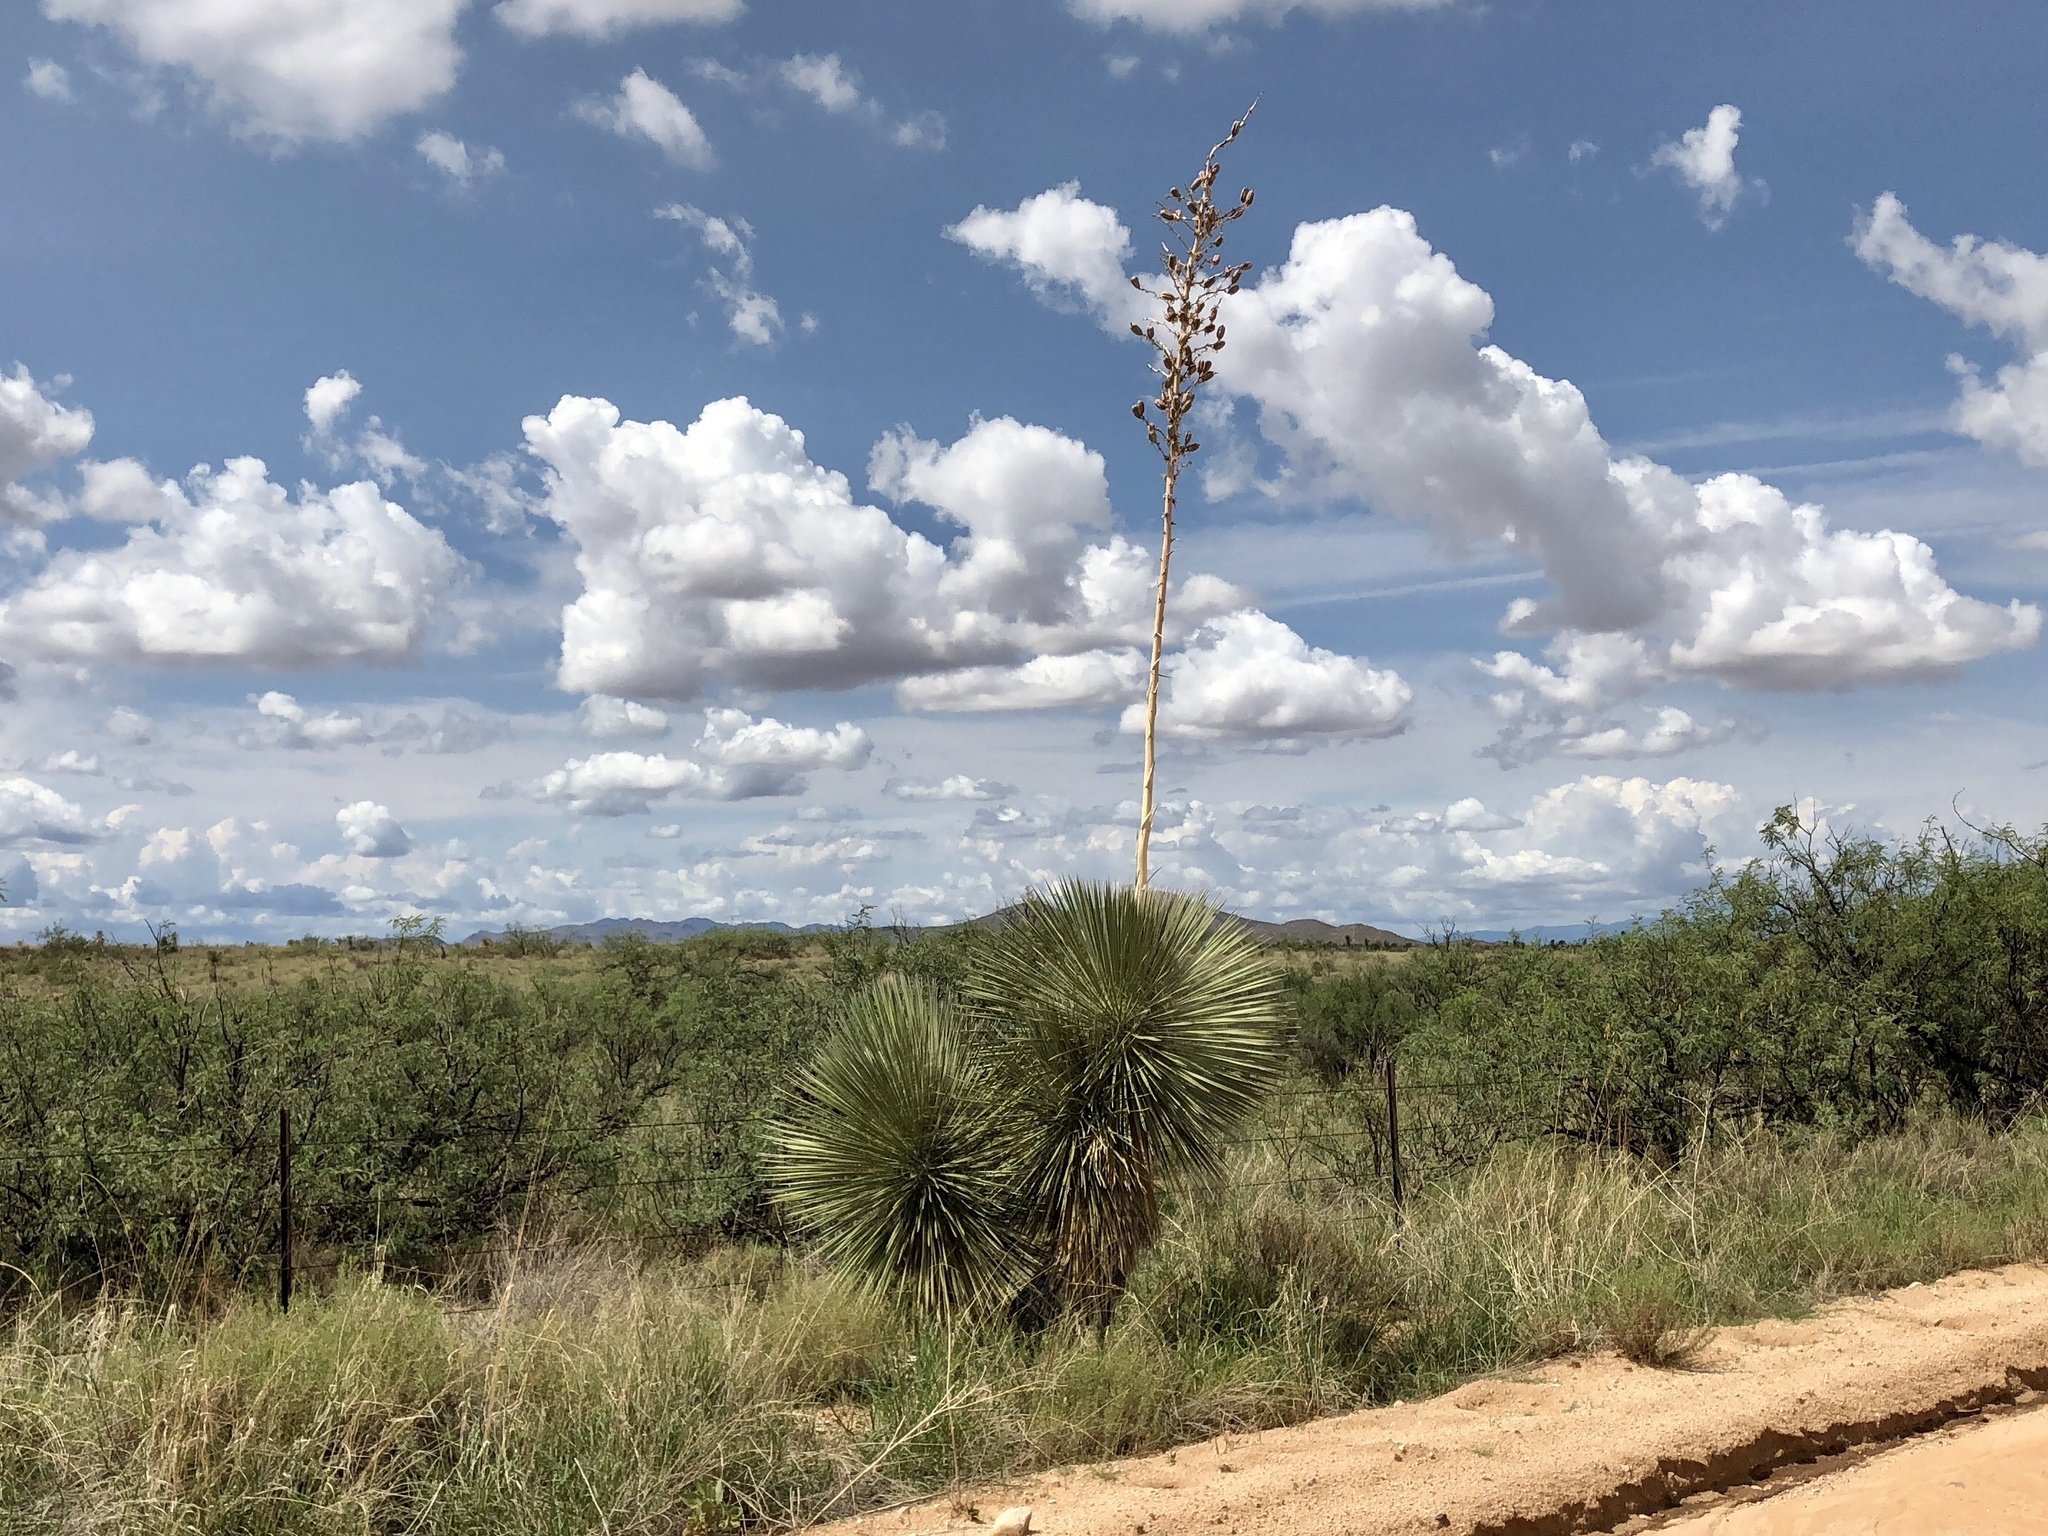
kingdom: Plantae
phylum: Tracheophyta
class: Liliopsida
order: Asparagales
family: Asparagaceae
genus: Yucca
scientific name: Yucca elata
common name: Palmella
